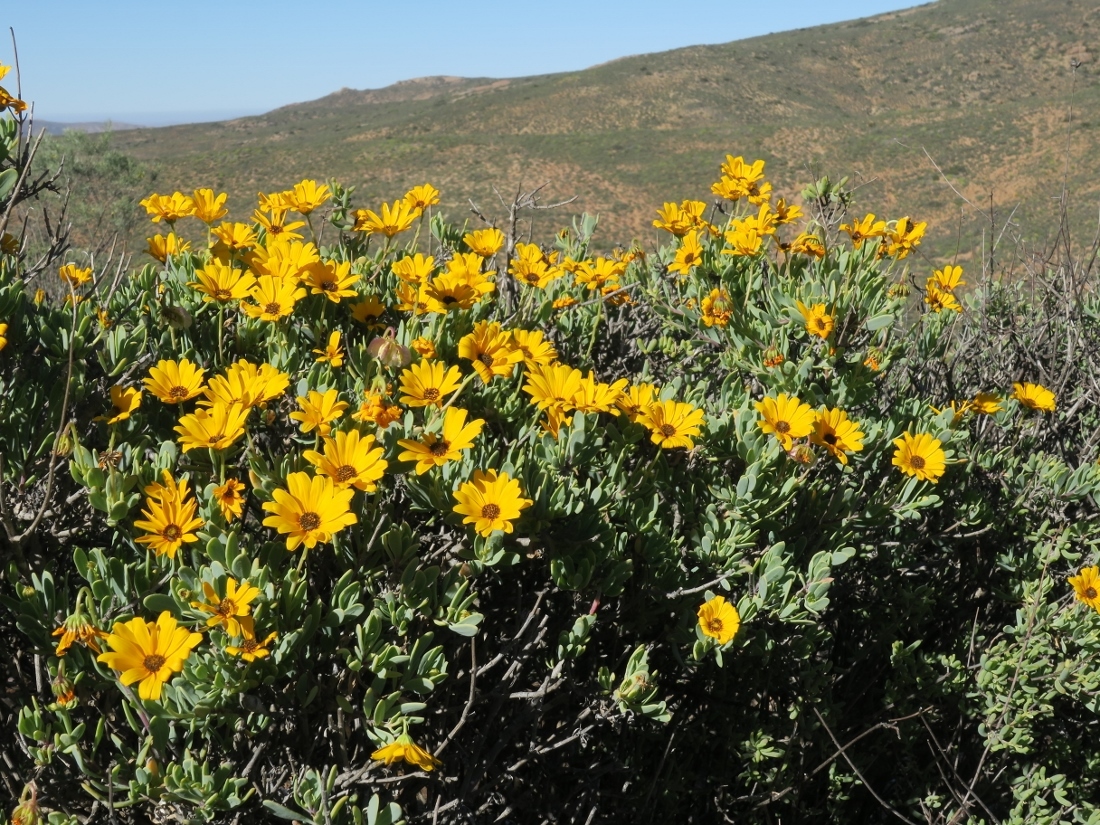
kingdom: Plantae
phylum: Tracheophyta
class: Magnoliopsida
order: Asterales
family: Asteraceae
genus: Osteospermum
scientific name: Osteospermum oppositifolium
